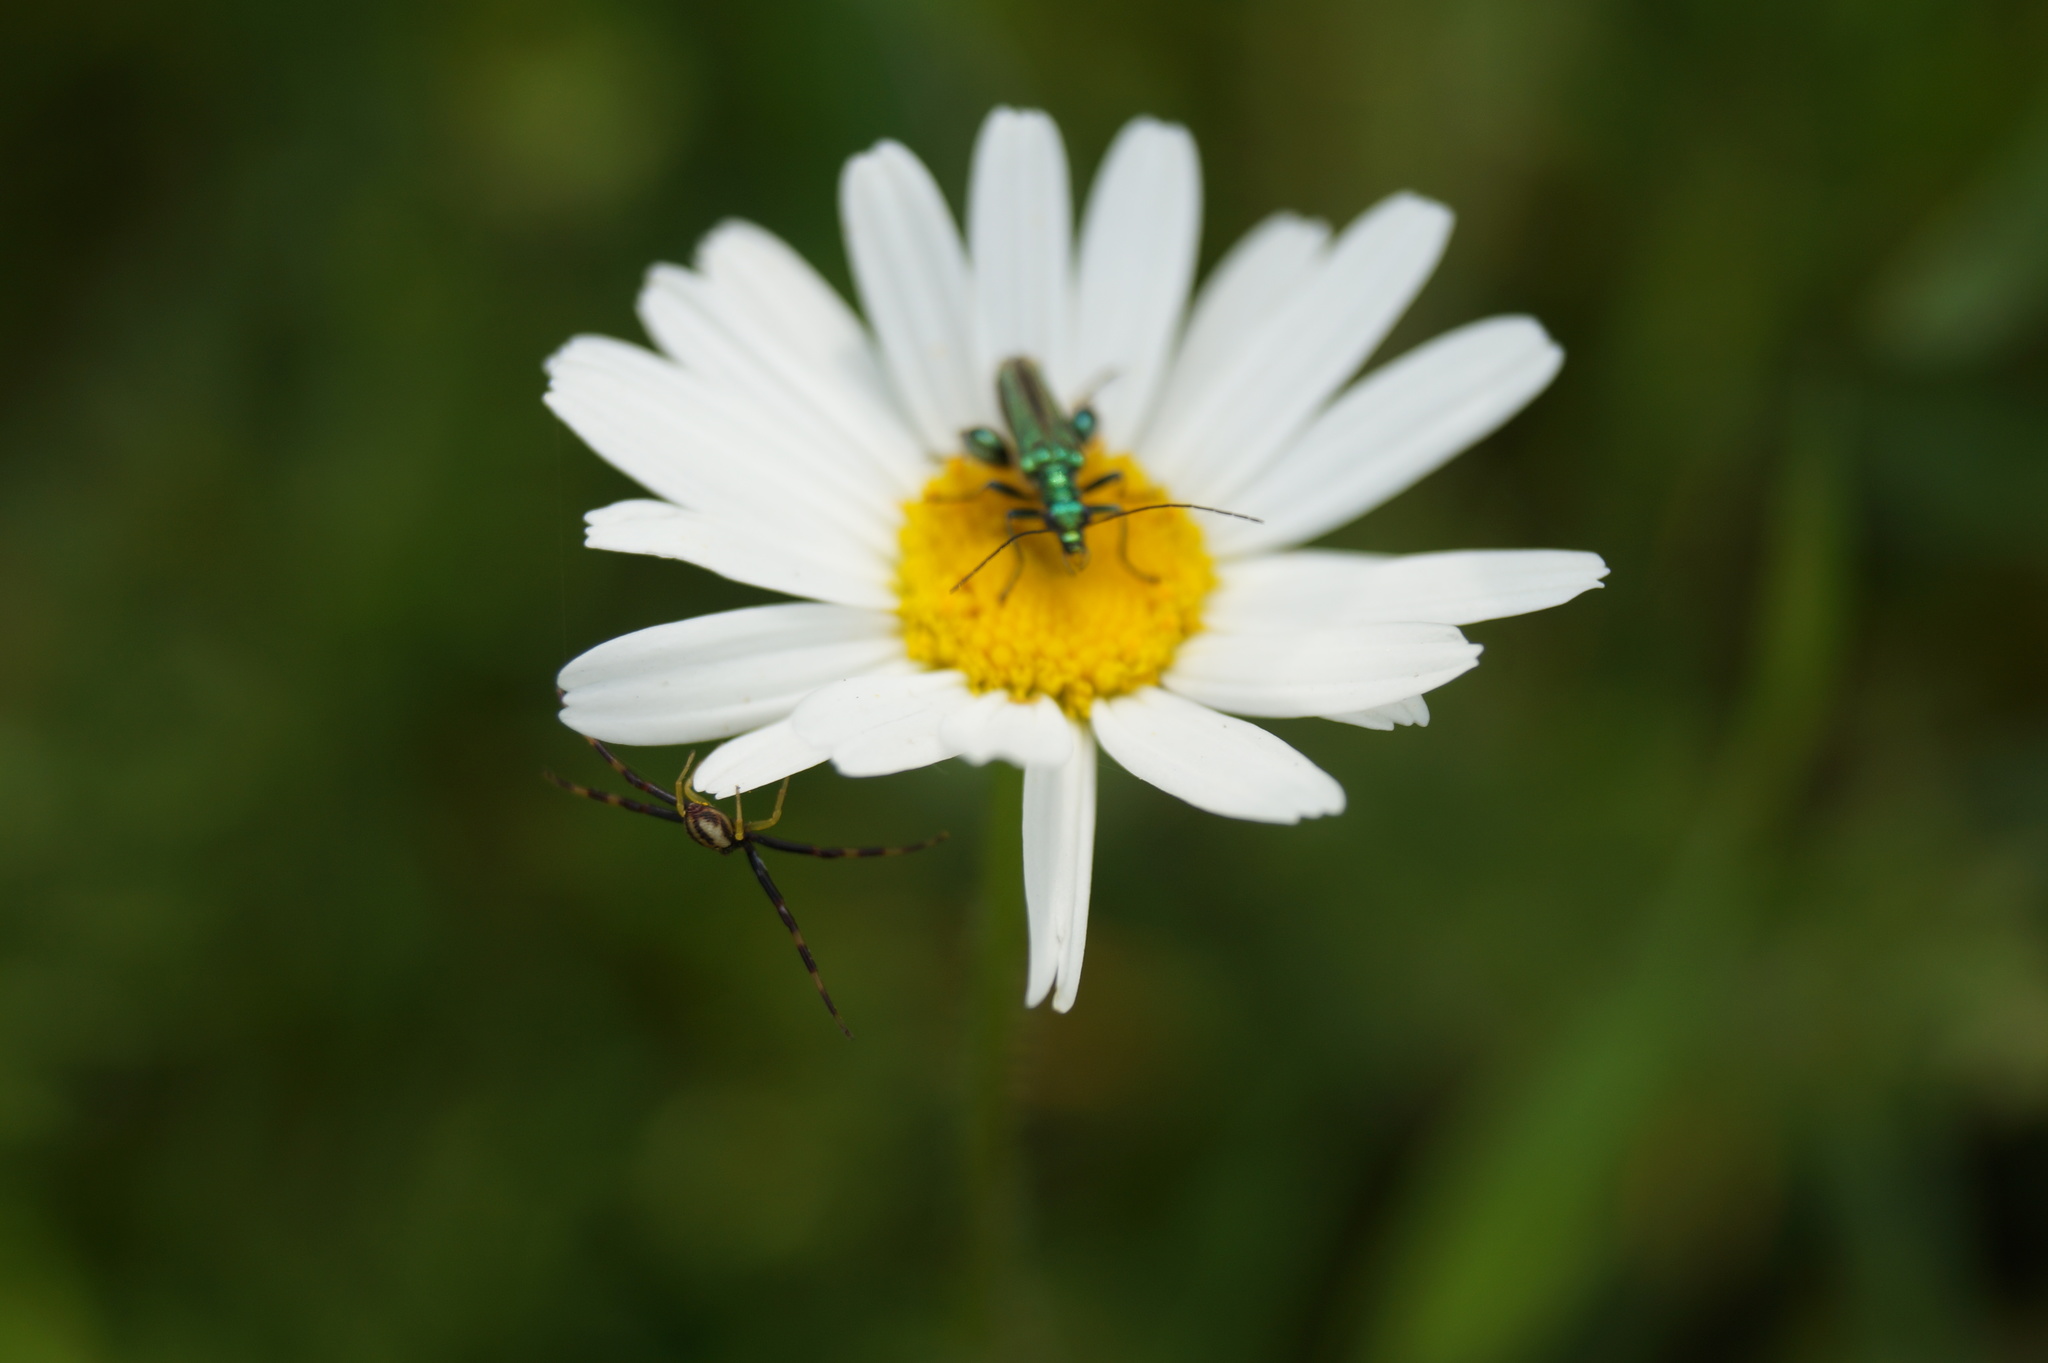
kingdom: Animalia
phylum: Arthropoda
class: Arachnida
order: Araneae
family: Thomisidae
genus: Misumena
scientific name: Misumena vatia
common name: Goldenrod crab spider
